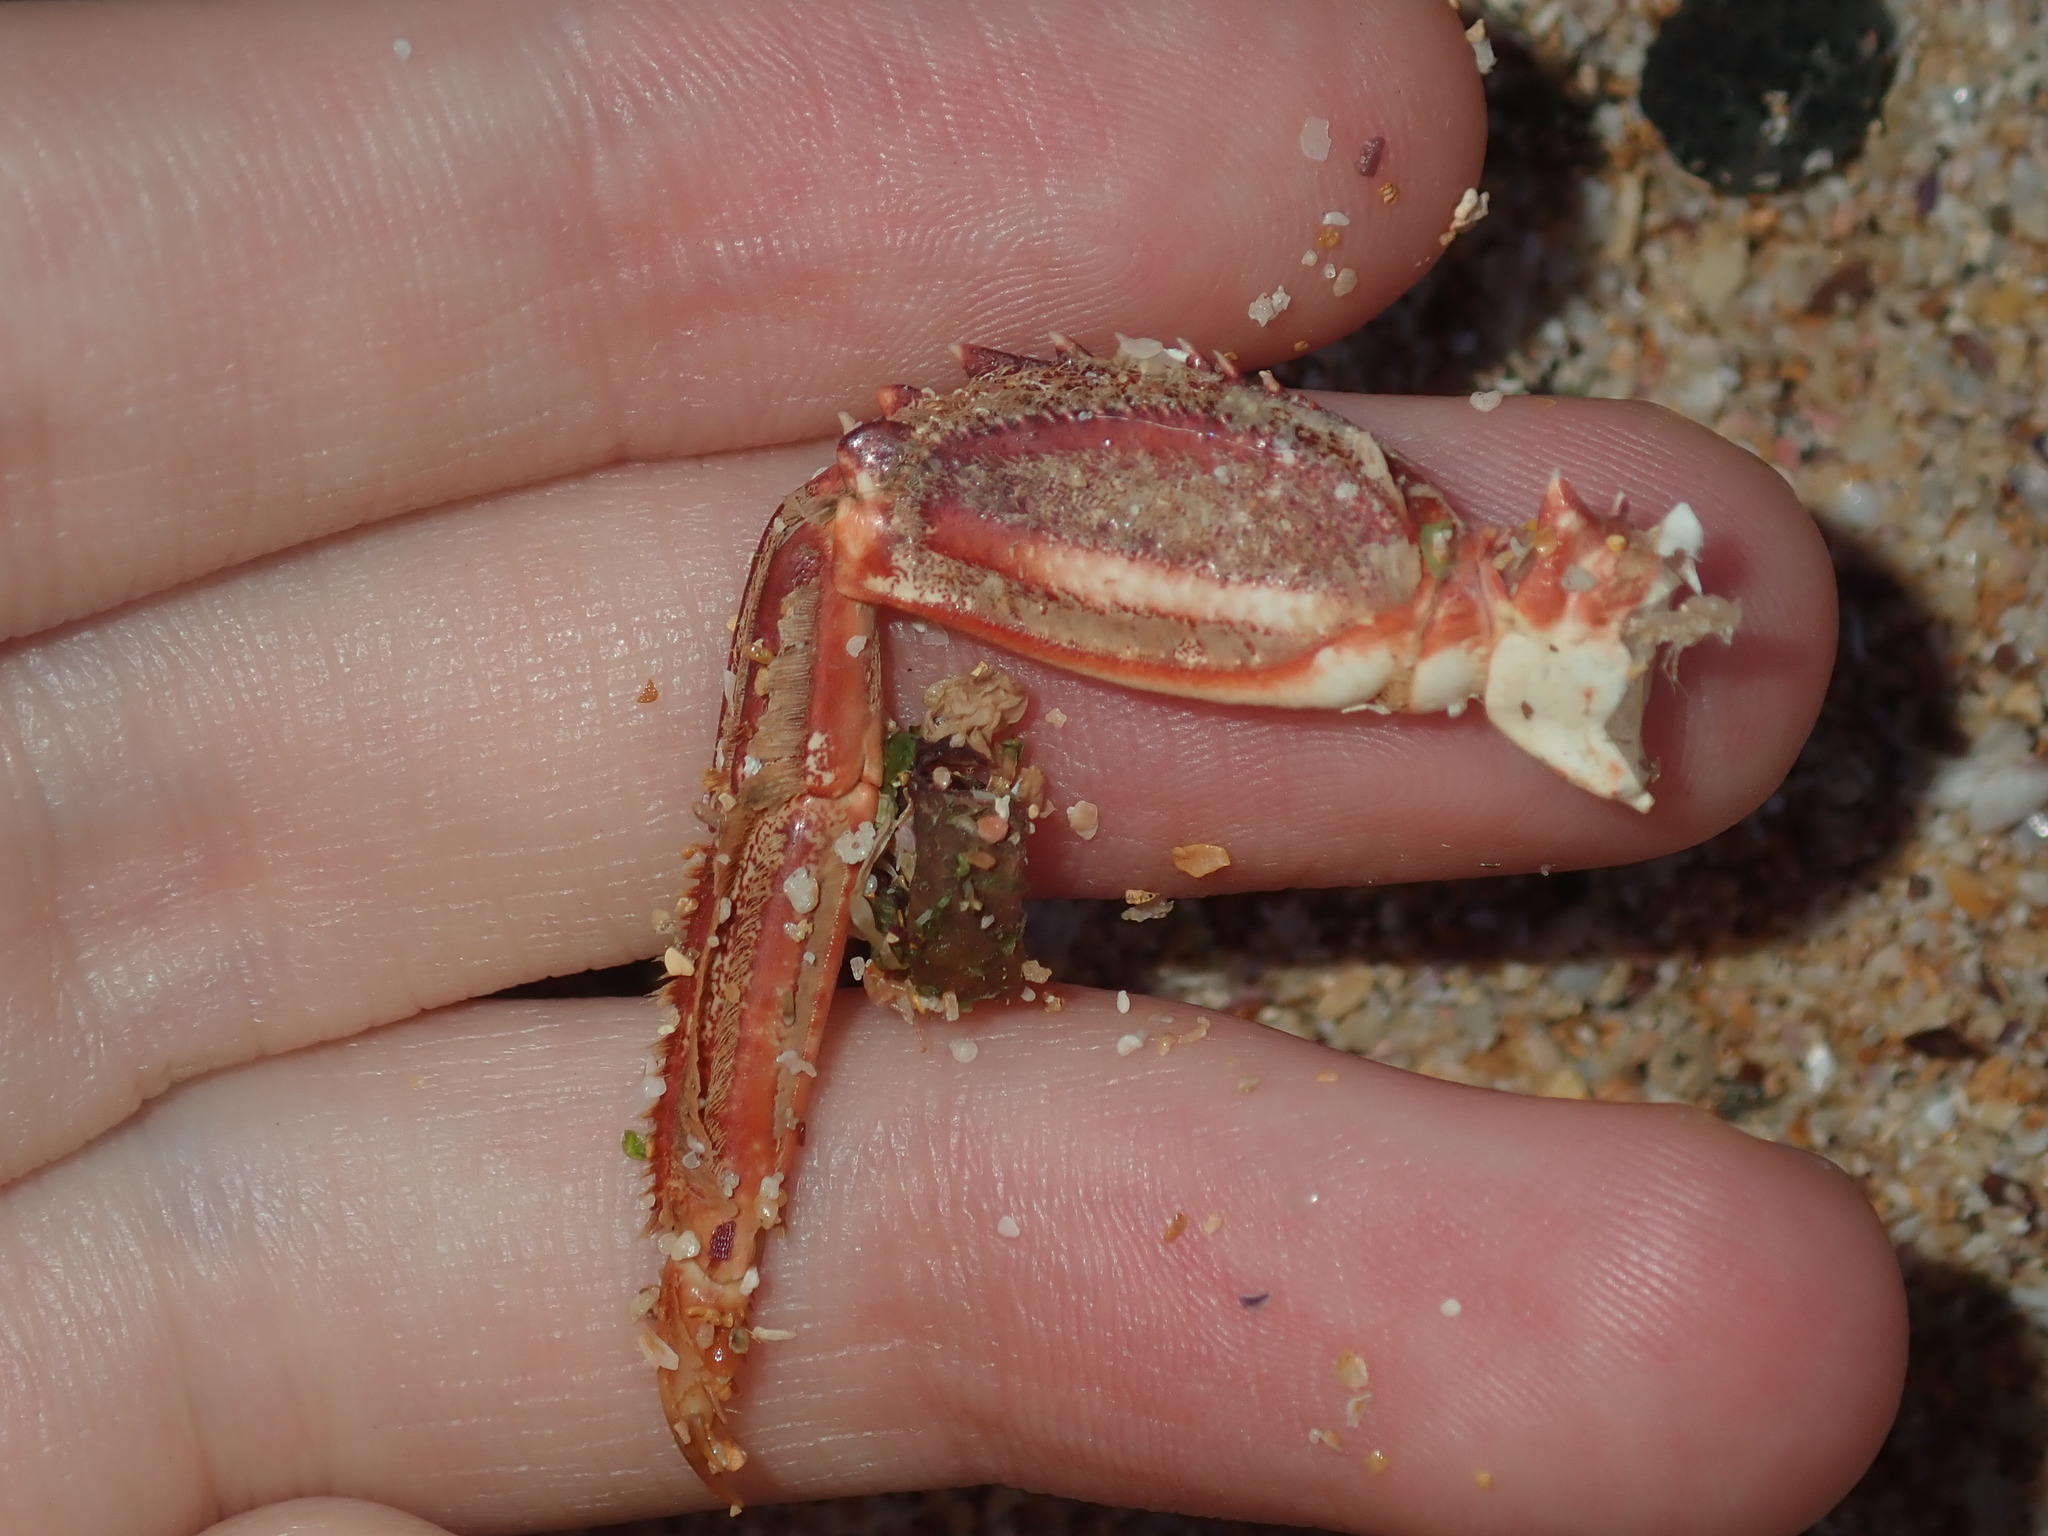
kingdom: Animalia
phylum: Arthropoda
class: Malacostraca
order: Decapoda
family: Plagusiidae
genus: Guinusia
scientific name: Guinusia chabrus
